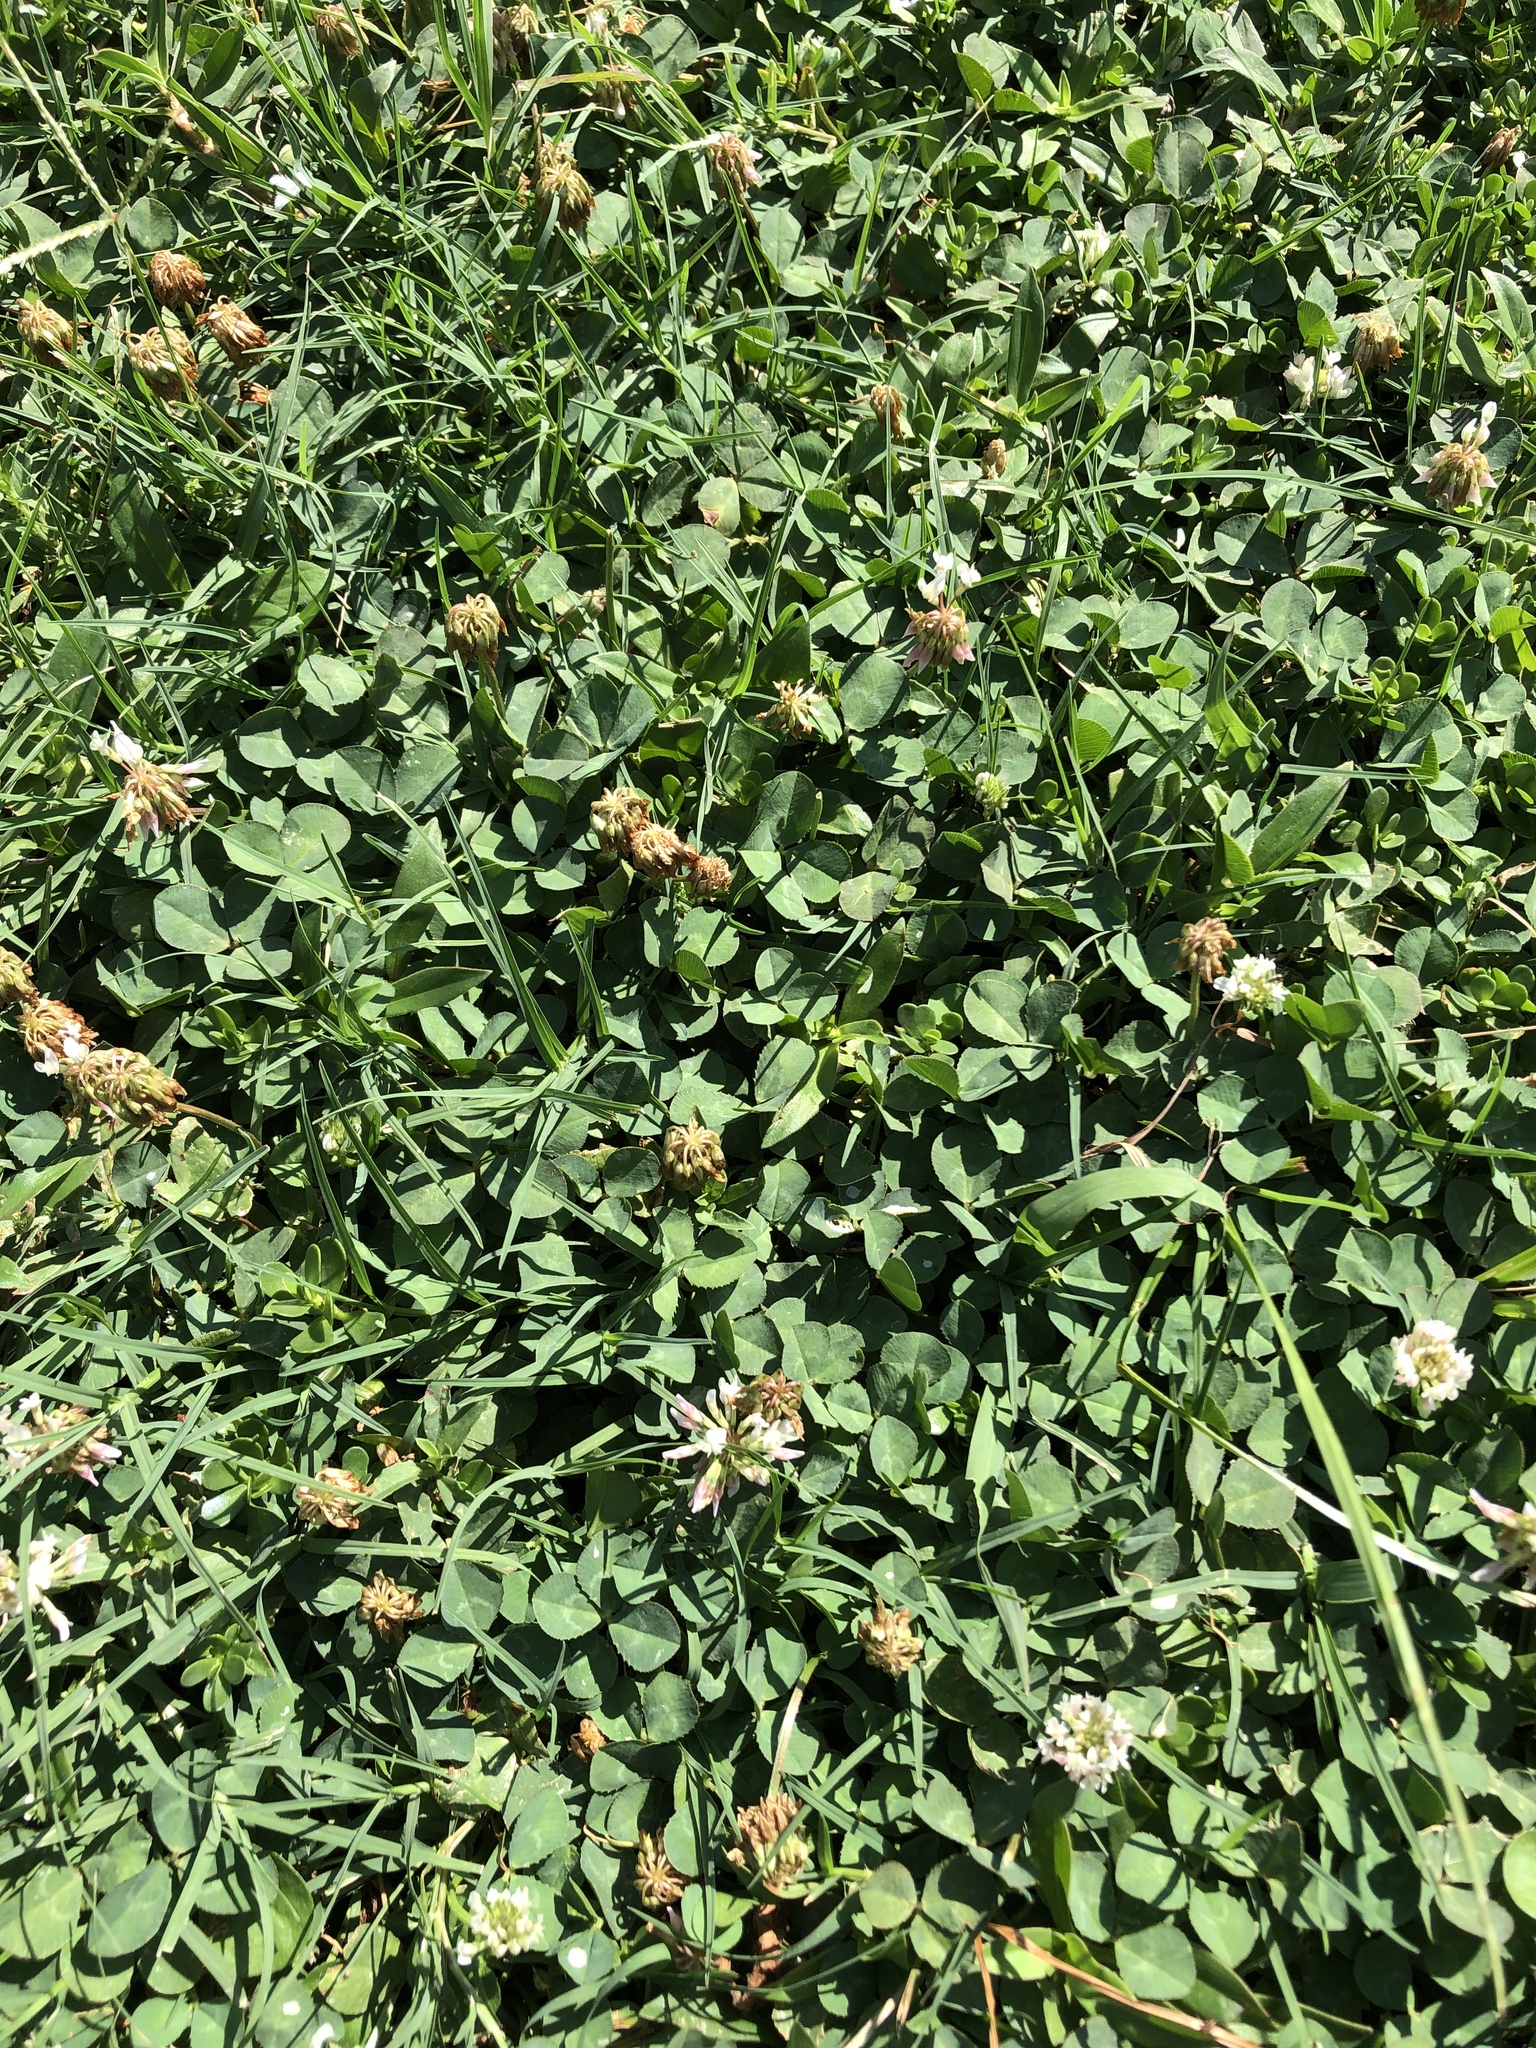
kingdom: Plantae
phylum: Tracheophyta
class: Magnoliopsida
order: Fabales
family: Fabaceae
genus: Trifolium
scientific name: Trifolium repens
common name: White clover
